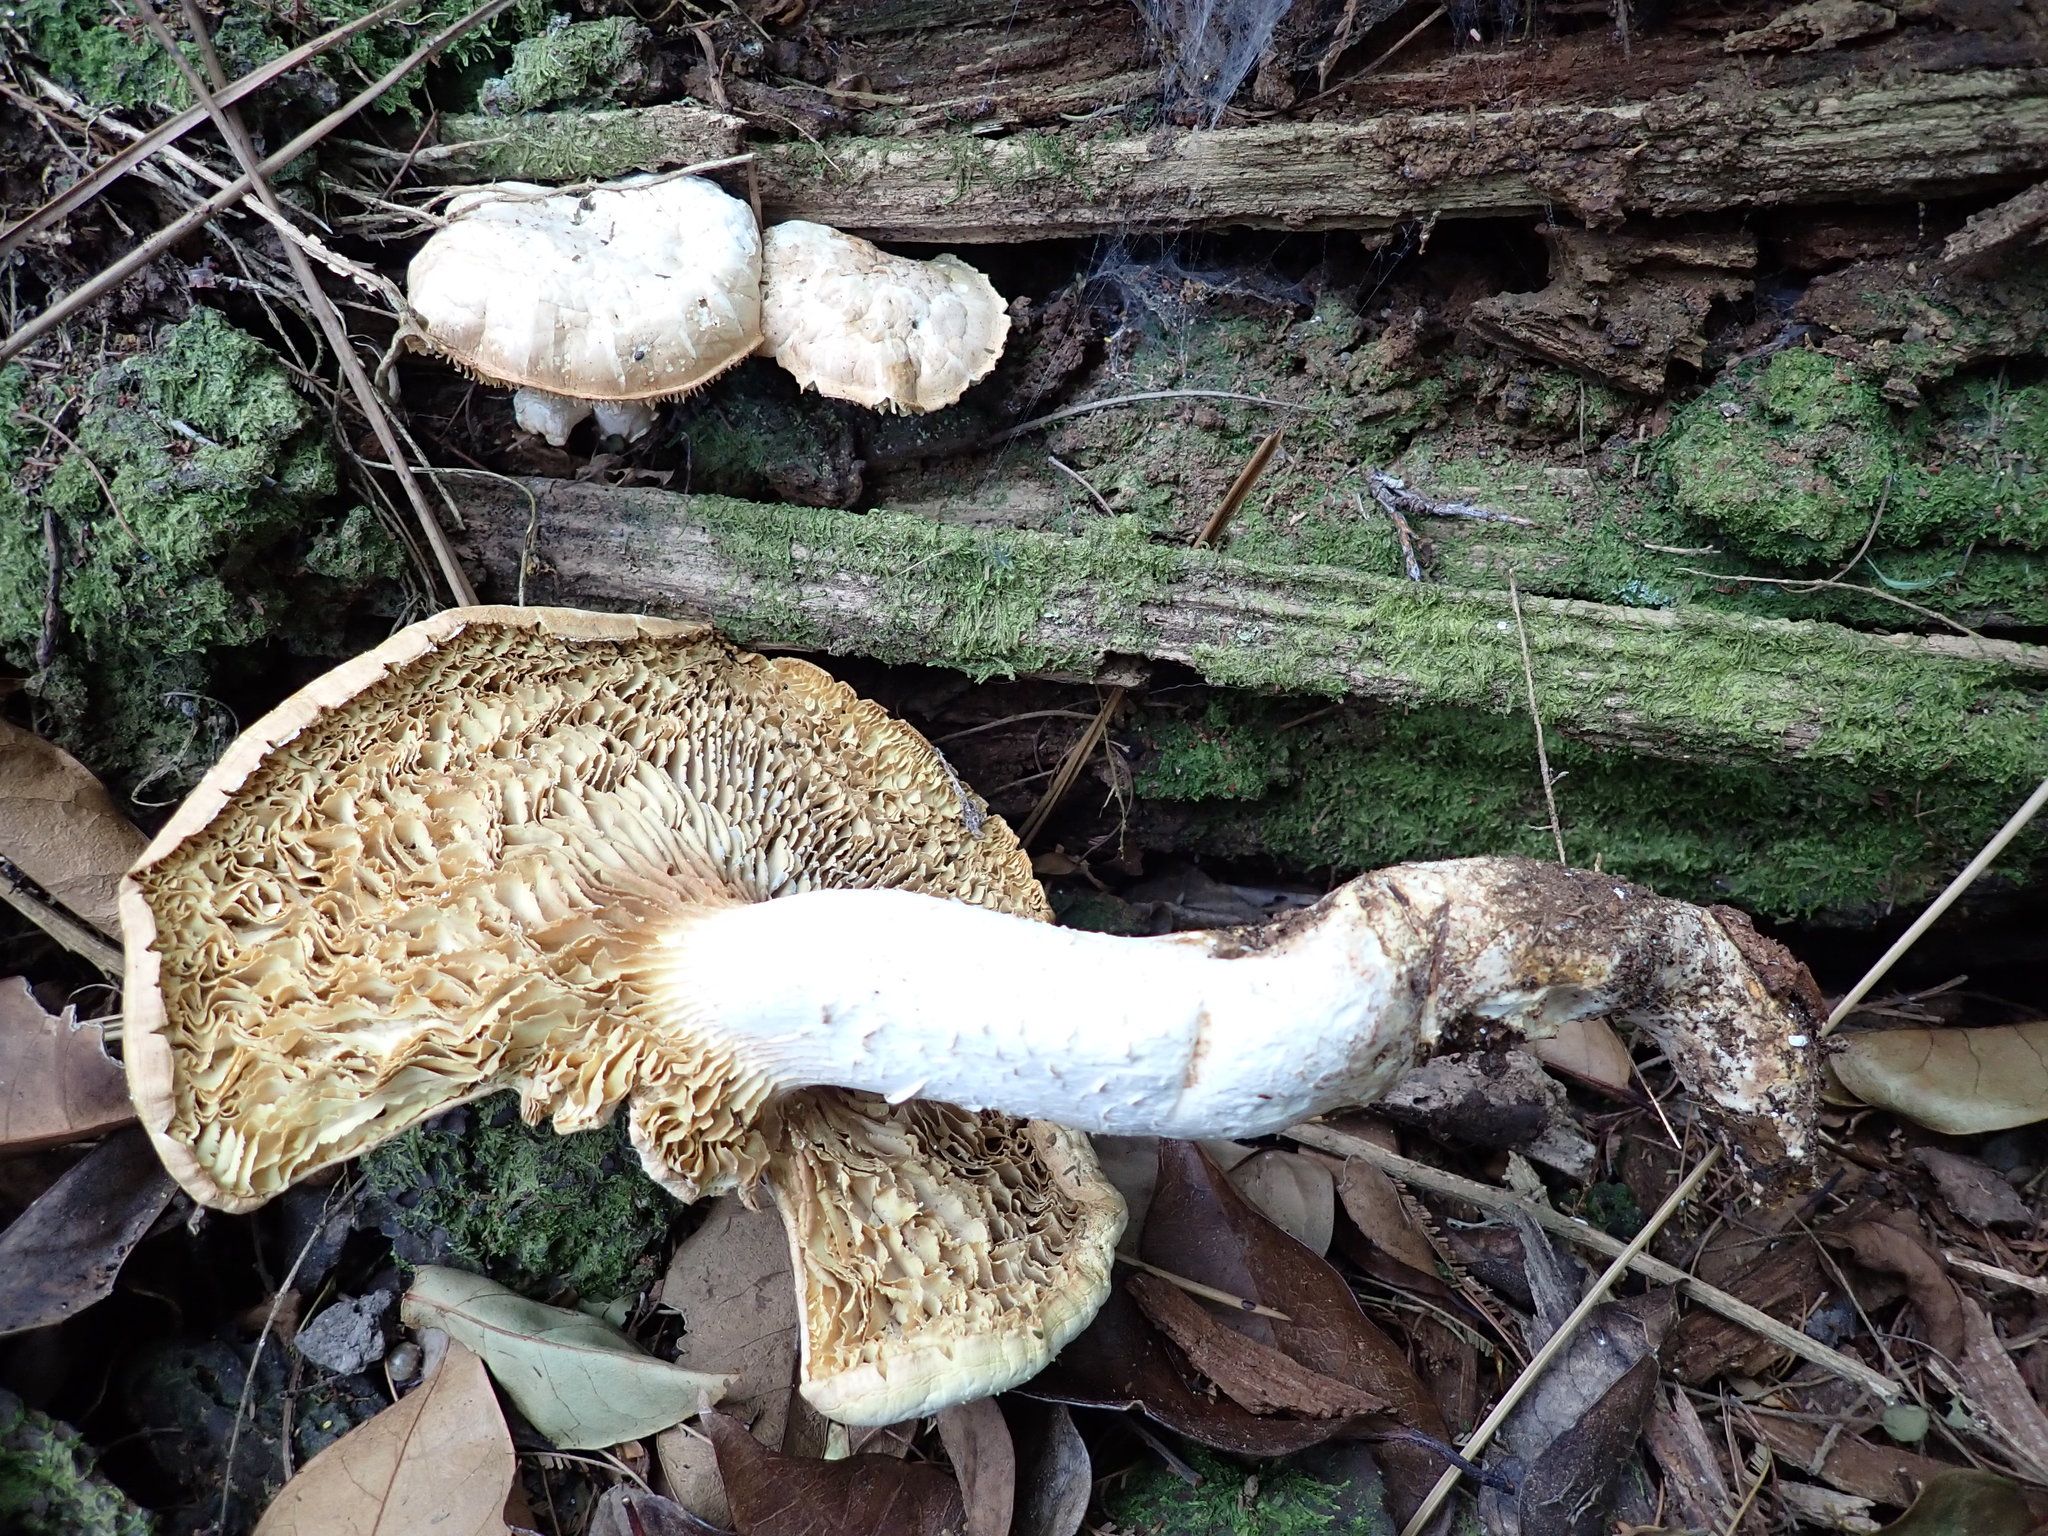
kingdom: Fungi
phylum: Basidiomycota
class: Agaricomycetes
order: Gloeophyllales
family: Gloeophyllaceae
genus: Neolentinus
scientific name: Neolentinus lepideus
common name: Scaly sawgill
